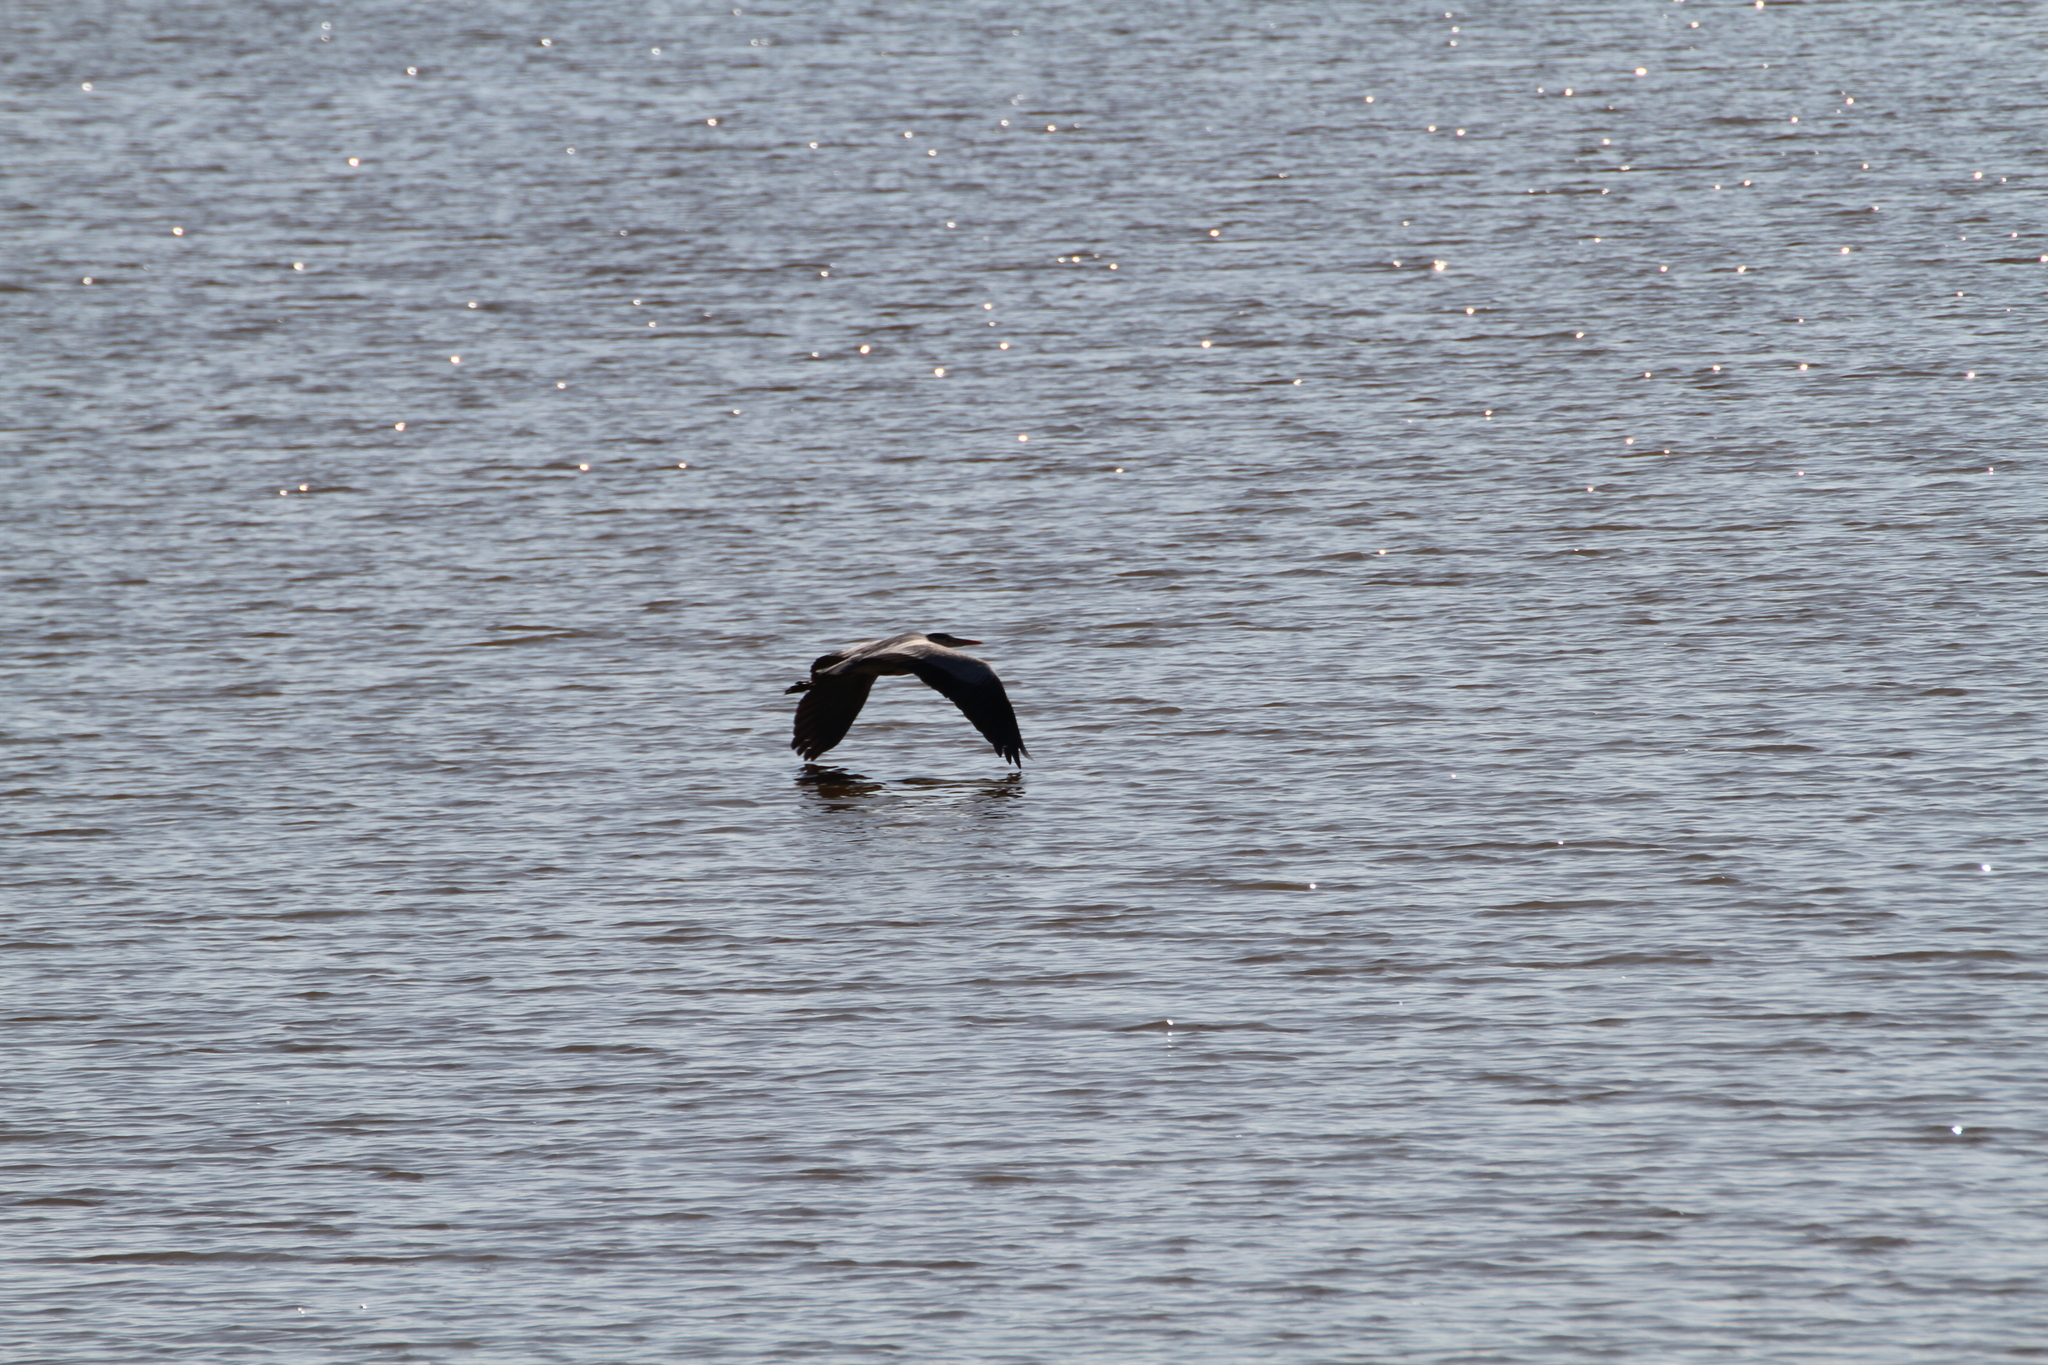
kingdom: Animalia
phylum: Chordata
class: Aves
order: Pelecaniformes
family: Ardeidae
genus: Ardea
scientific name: Ardea cinerea
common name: Grey heron
